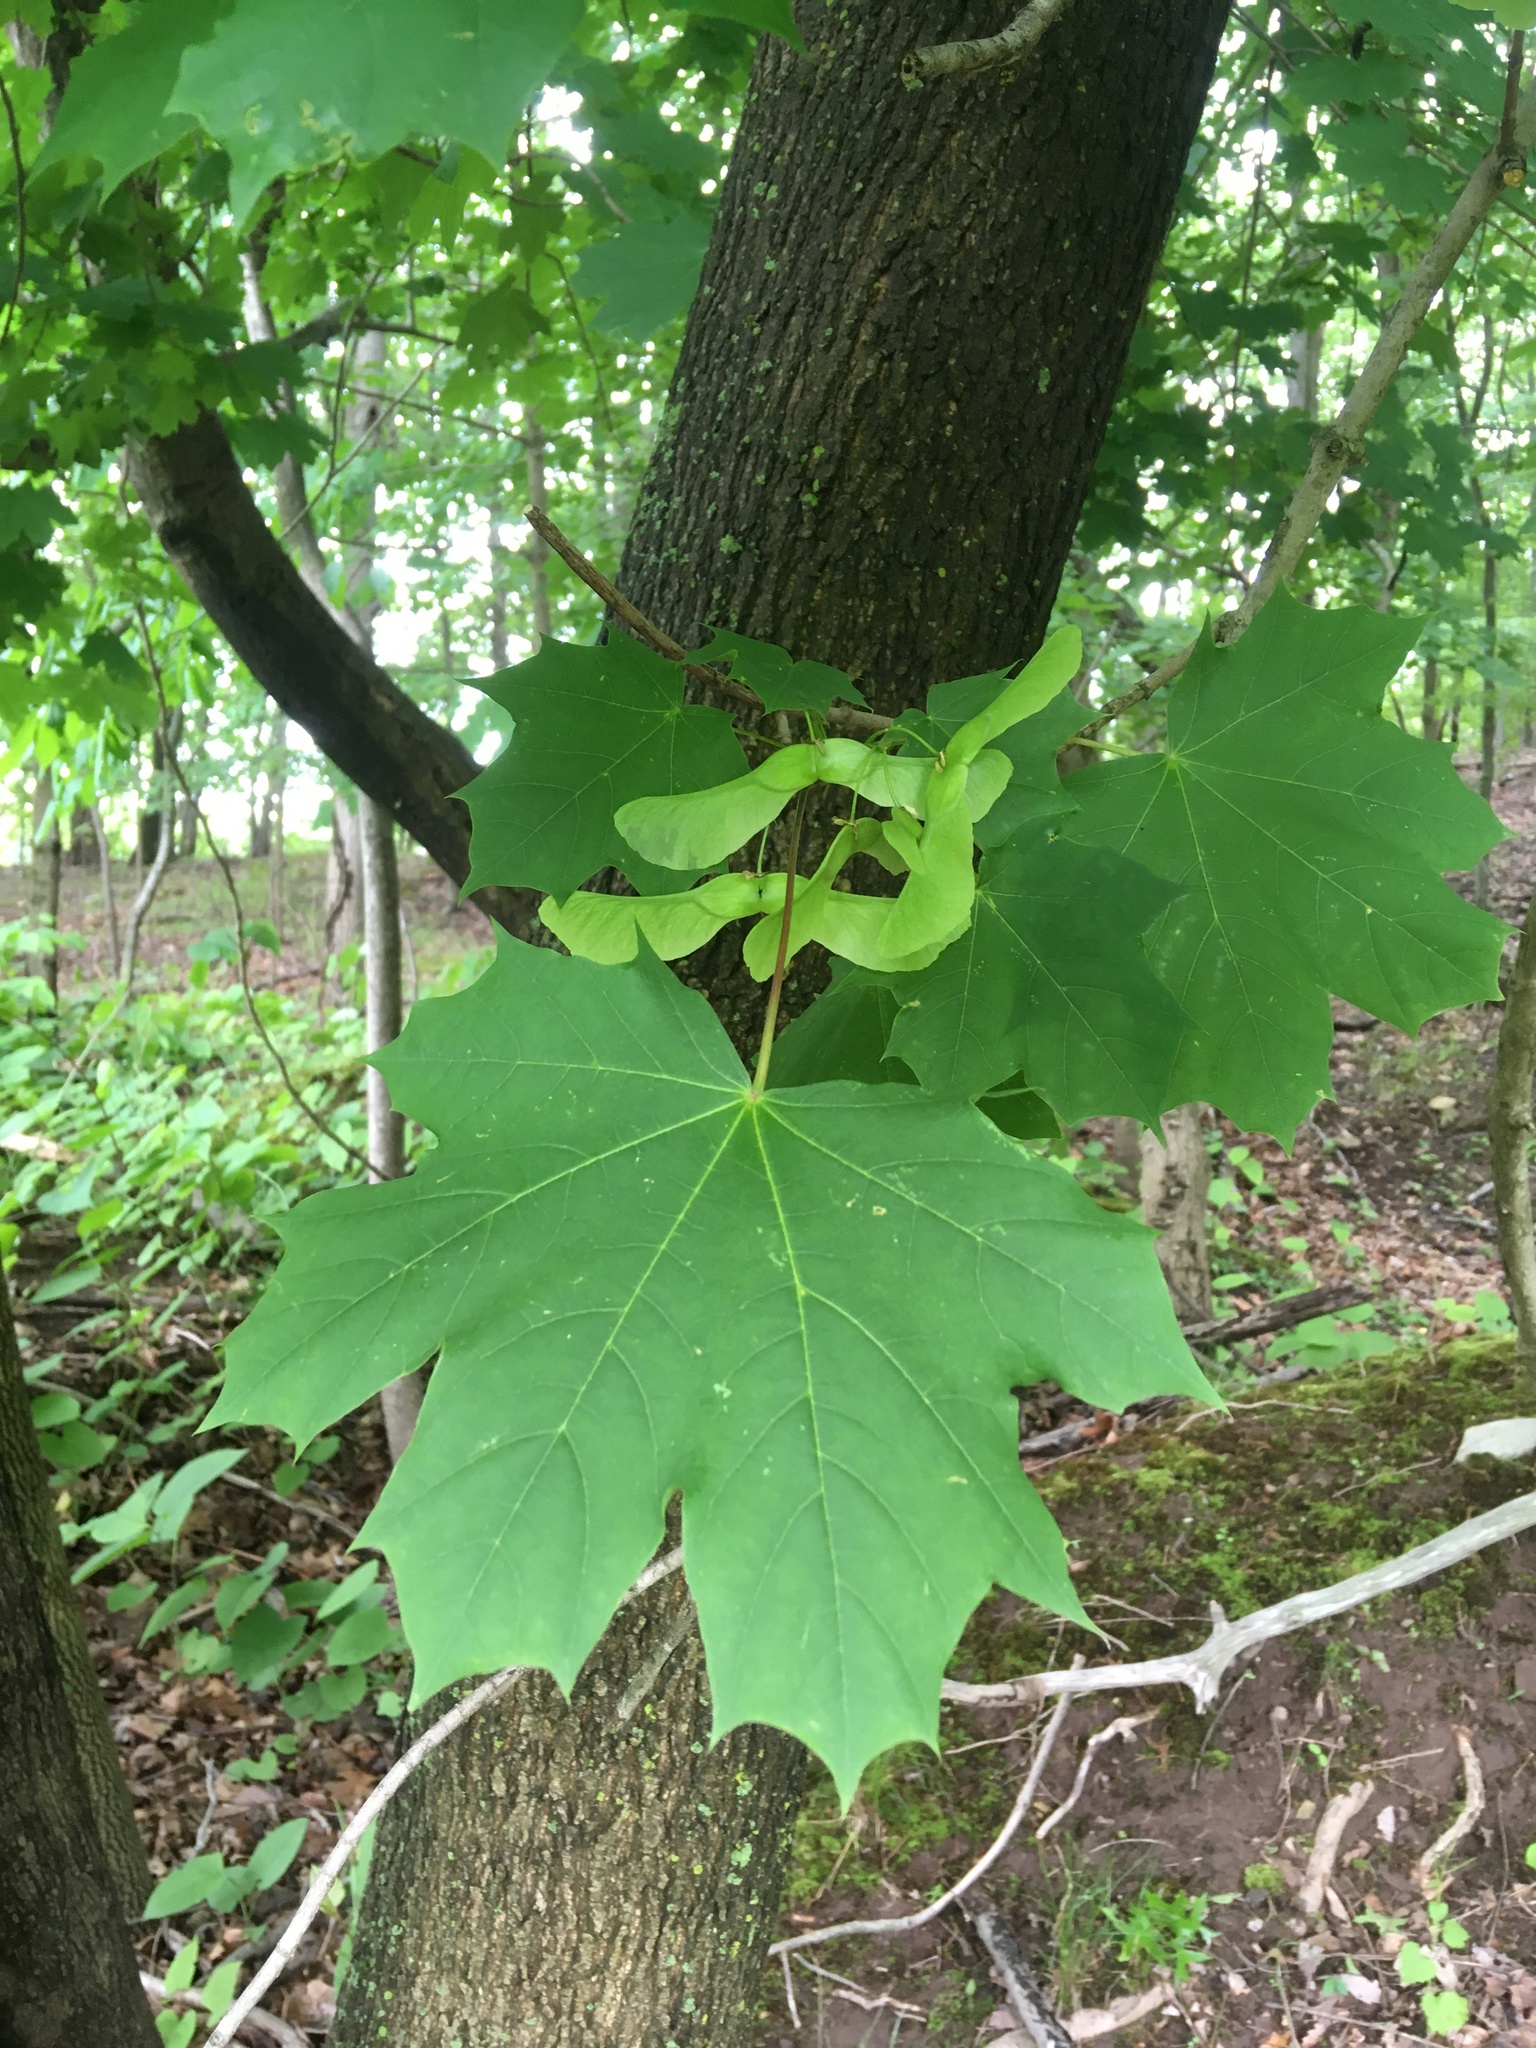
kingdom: Plantae
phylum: Tracheophyta
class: Magnoliopsida
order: Sapindales
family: Sapindaceae
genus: Acer
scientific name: Acer platanoides
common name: Norway maple
